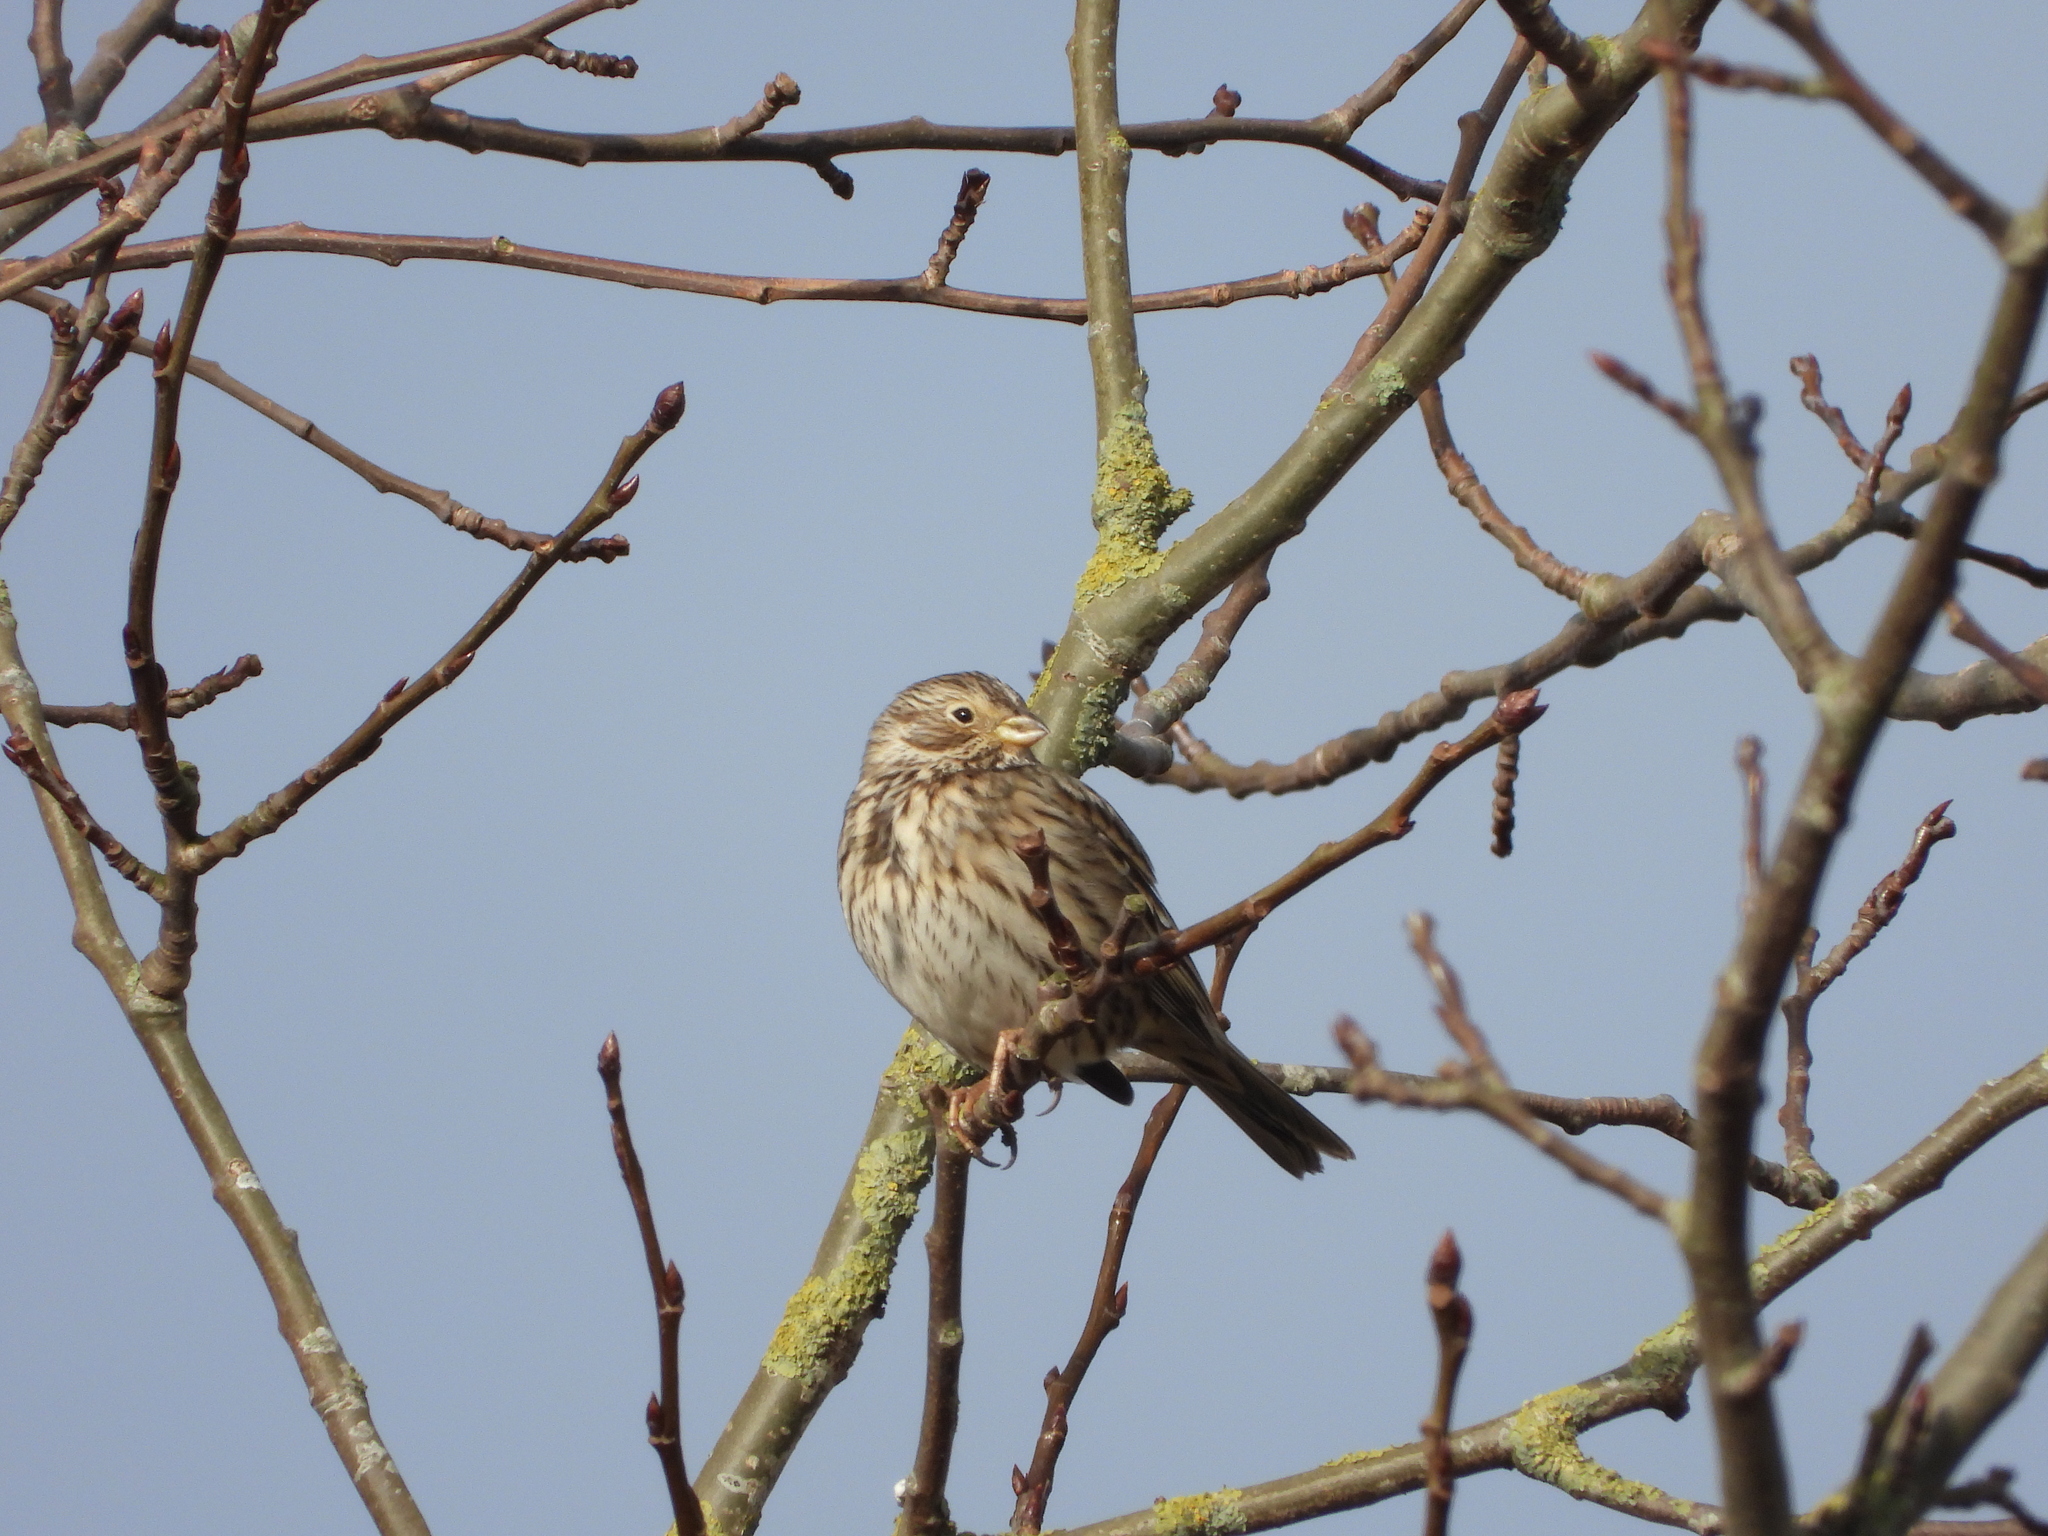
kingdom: Animalia
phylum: Chordata
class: Aves
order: Passeriformes
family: Emberizidae
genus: Emberiza
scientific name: Emberiza calandra
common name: Corn bunting
